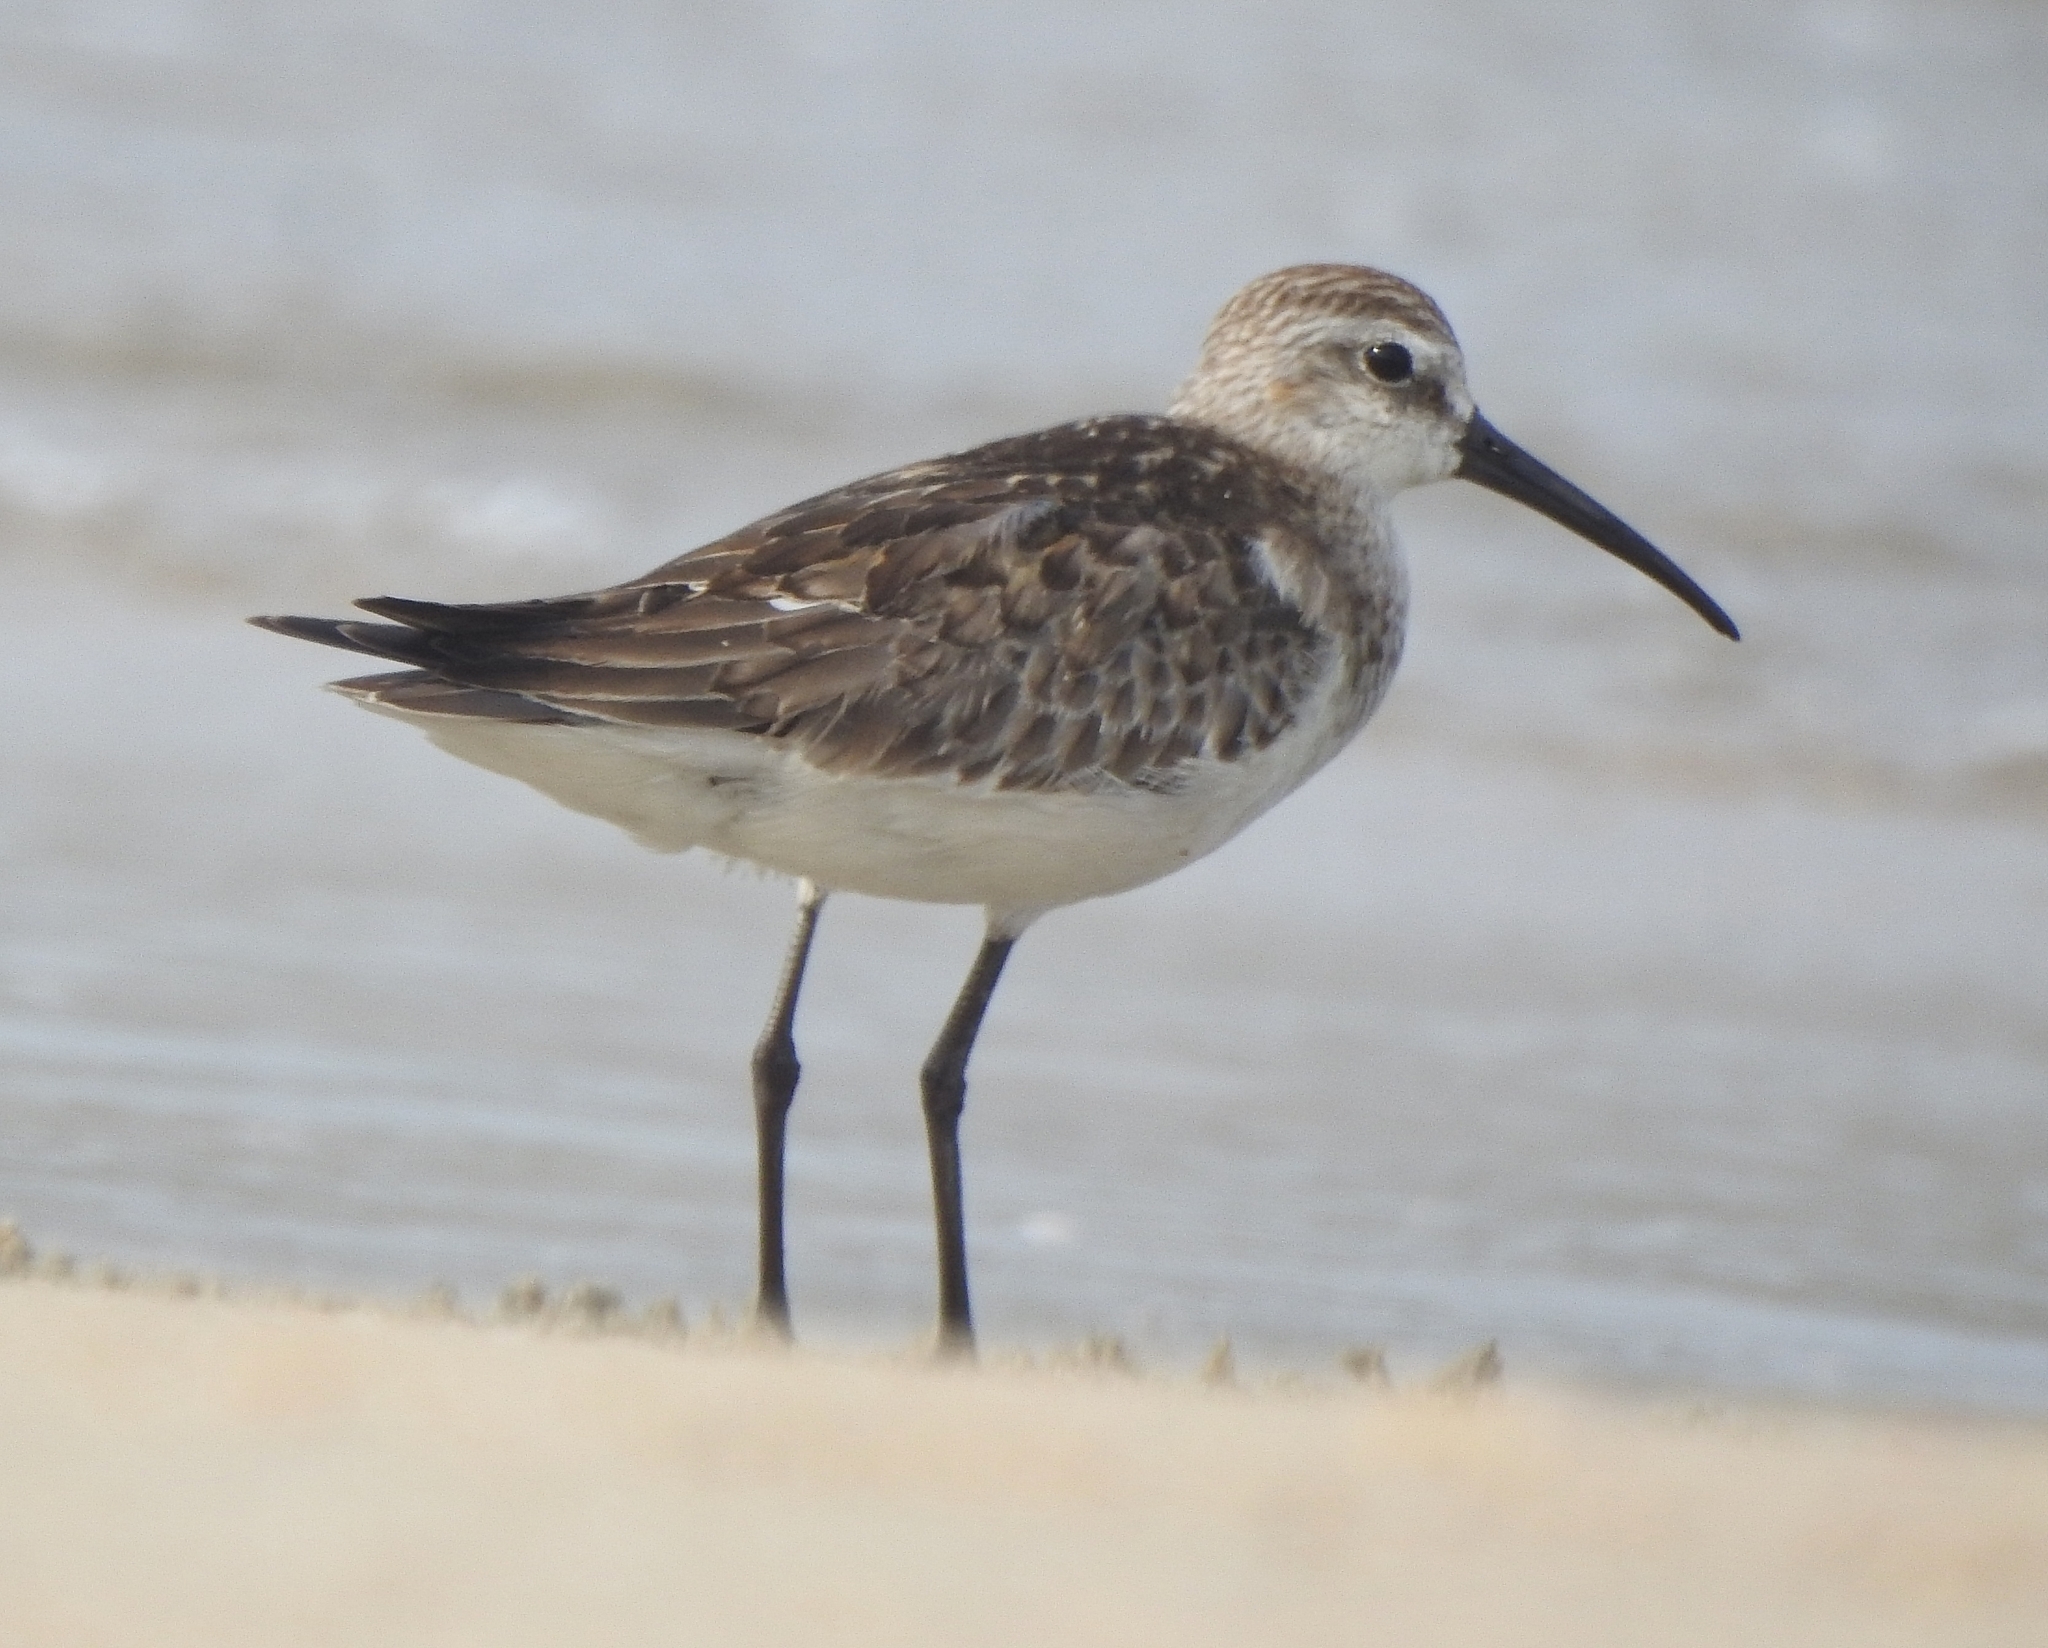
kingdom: Animalia
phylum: Chordata
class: Aves
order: Charadriiformes
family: Scolopacidae
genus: Calidris
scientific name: Calidris ferruginea
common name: Curlew sandpiper
